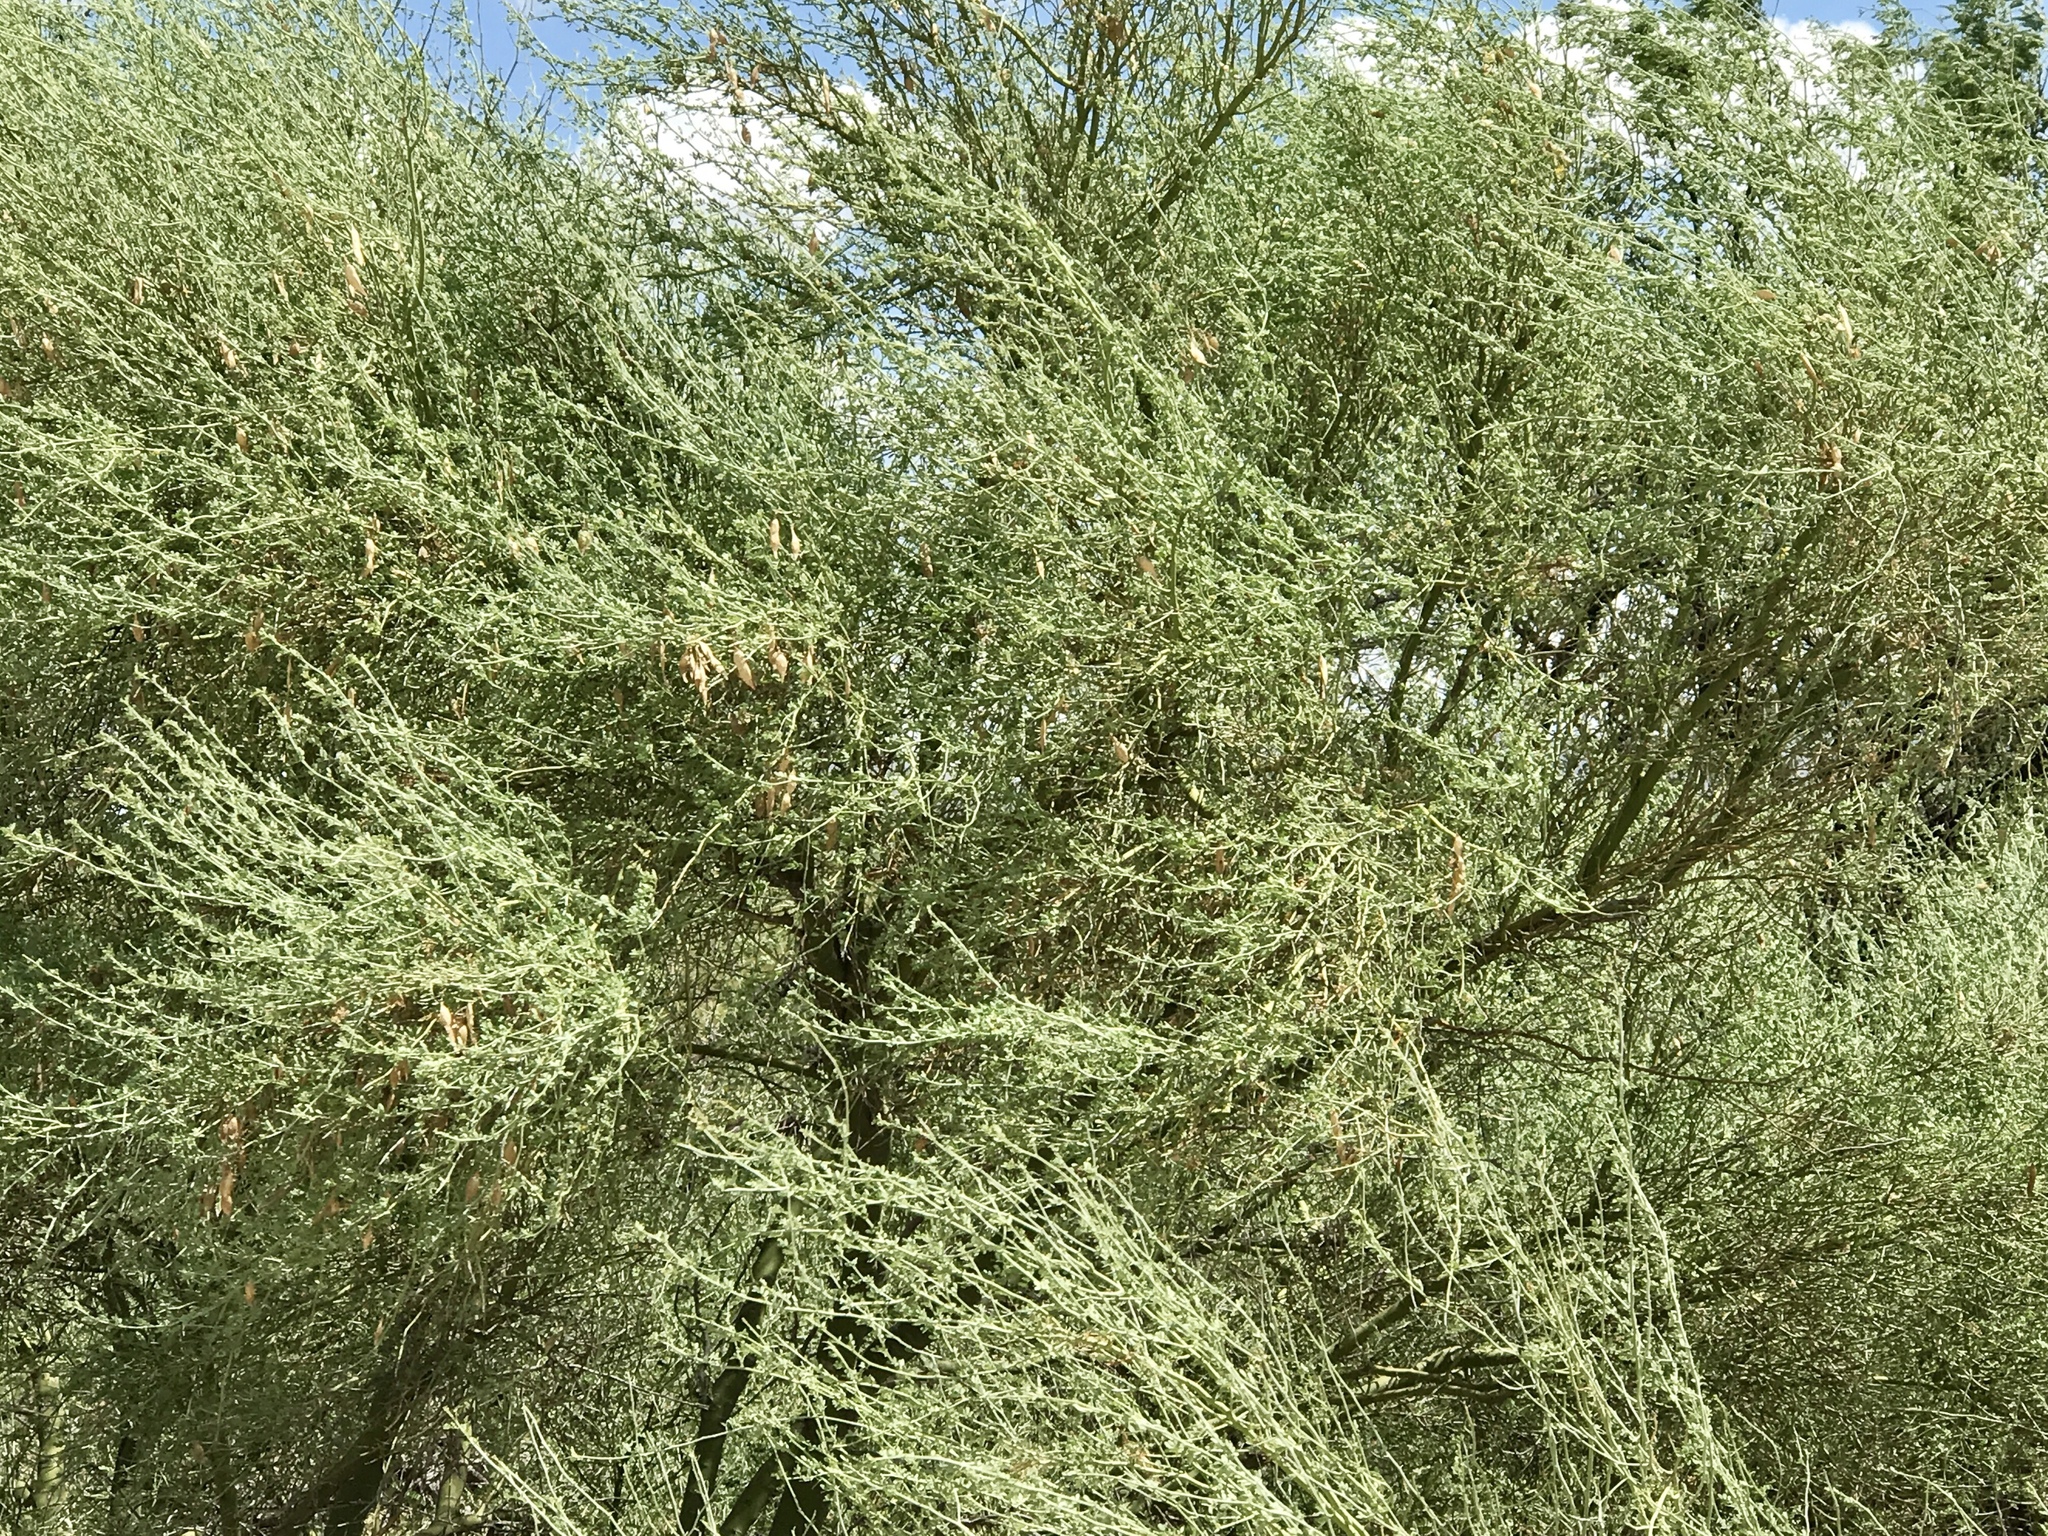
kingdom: Plantae
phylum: Tracheophyta
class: Magnoliopsida
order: Fabales
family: Fabaceae
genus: Parkinsonia
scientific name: Parkinsonia florida
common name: Blue paloverde
